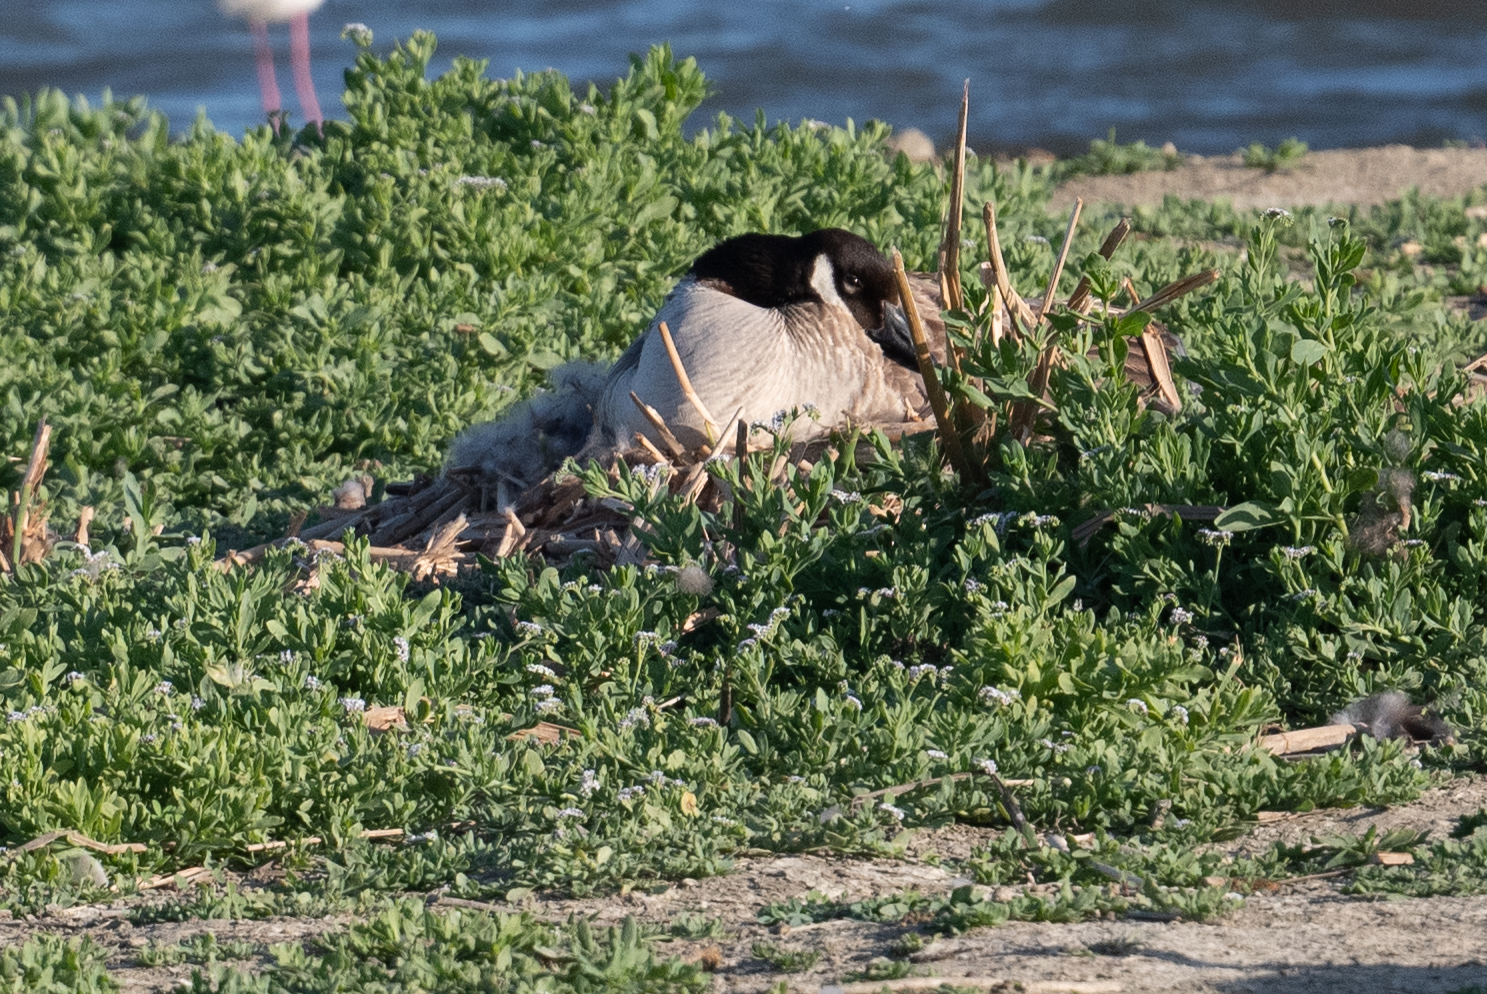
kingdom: Animalia
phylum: Chordata
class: Aves
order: Anseriformes
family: Anatidae
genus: Anas
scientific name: Anas platyrhynchos
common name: Mallard
